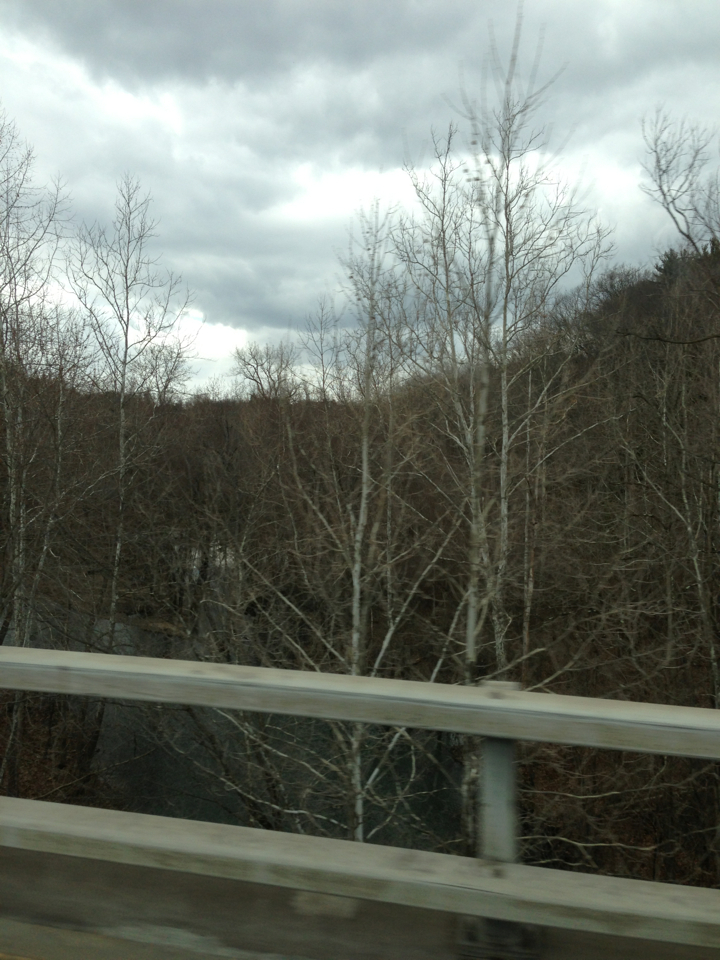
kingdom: Plantae
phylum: Tracheophyta
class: Magnoliopsida
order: Proteales
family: Platanaceae
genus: Platanus
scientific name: Platanus occidentalis
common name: American sycamore
